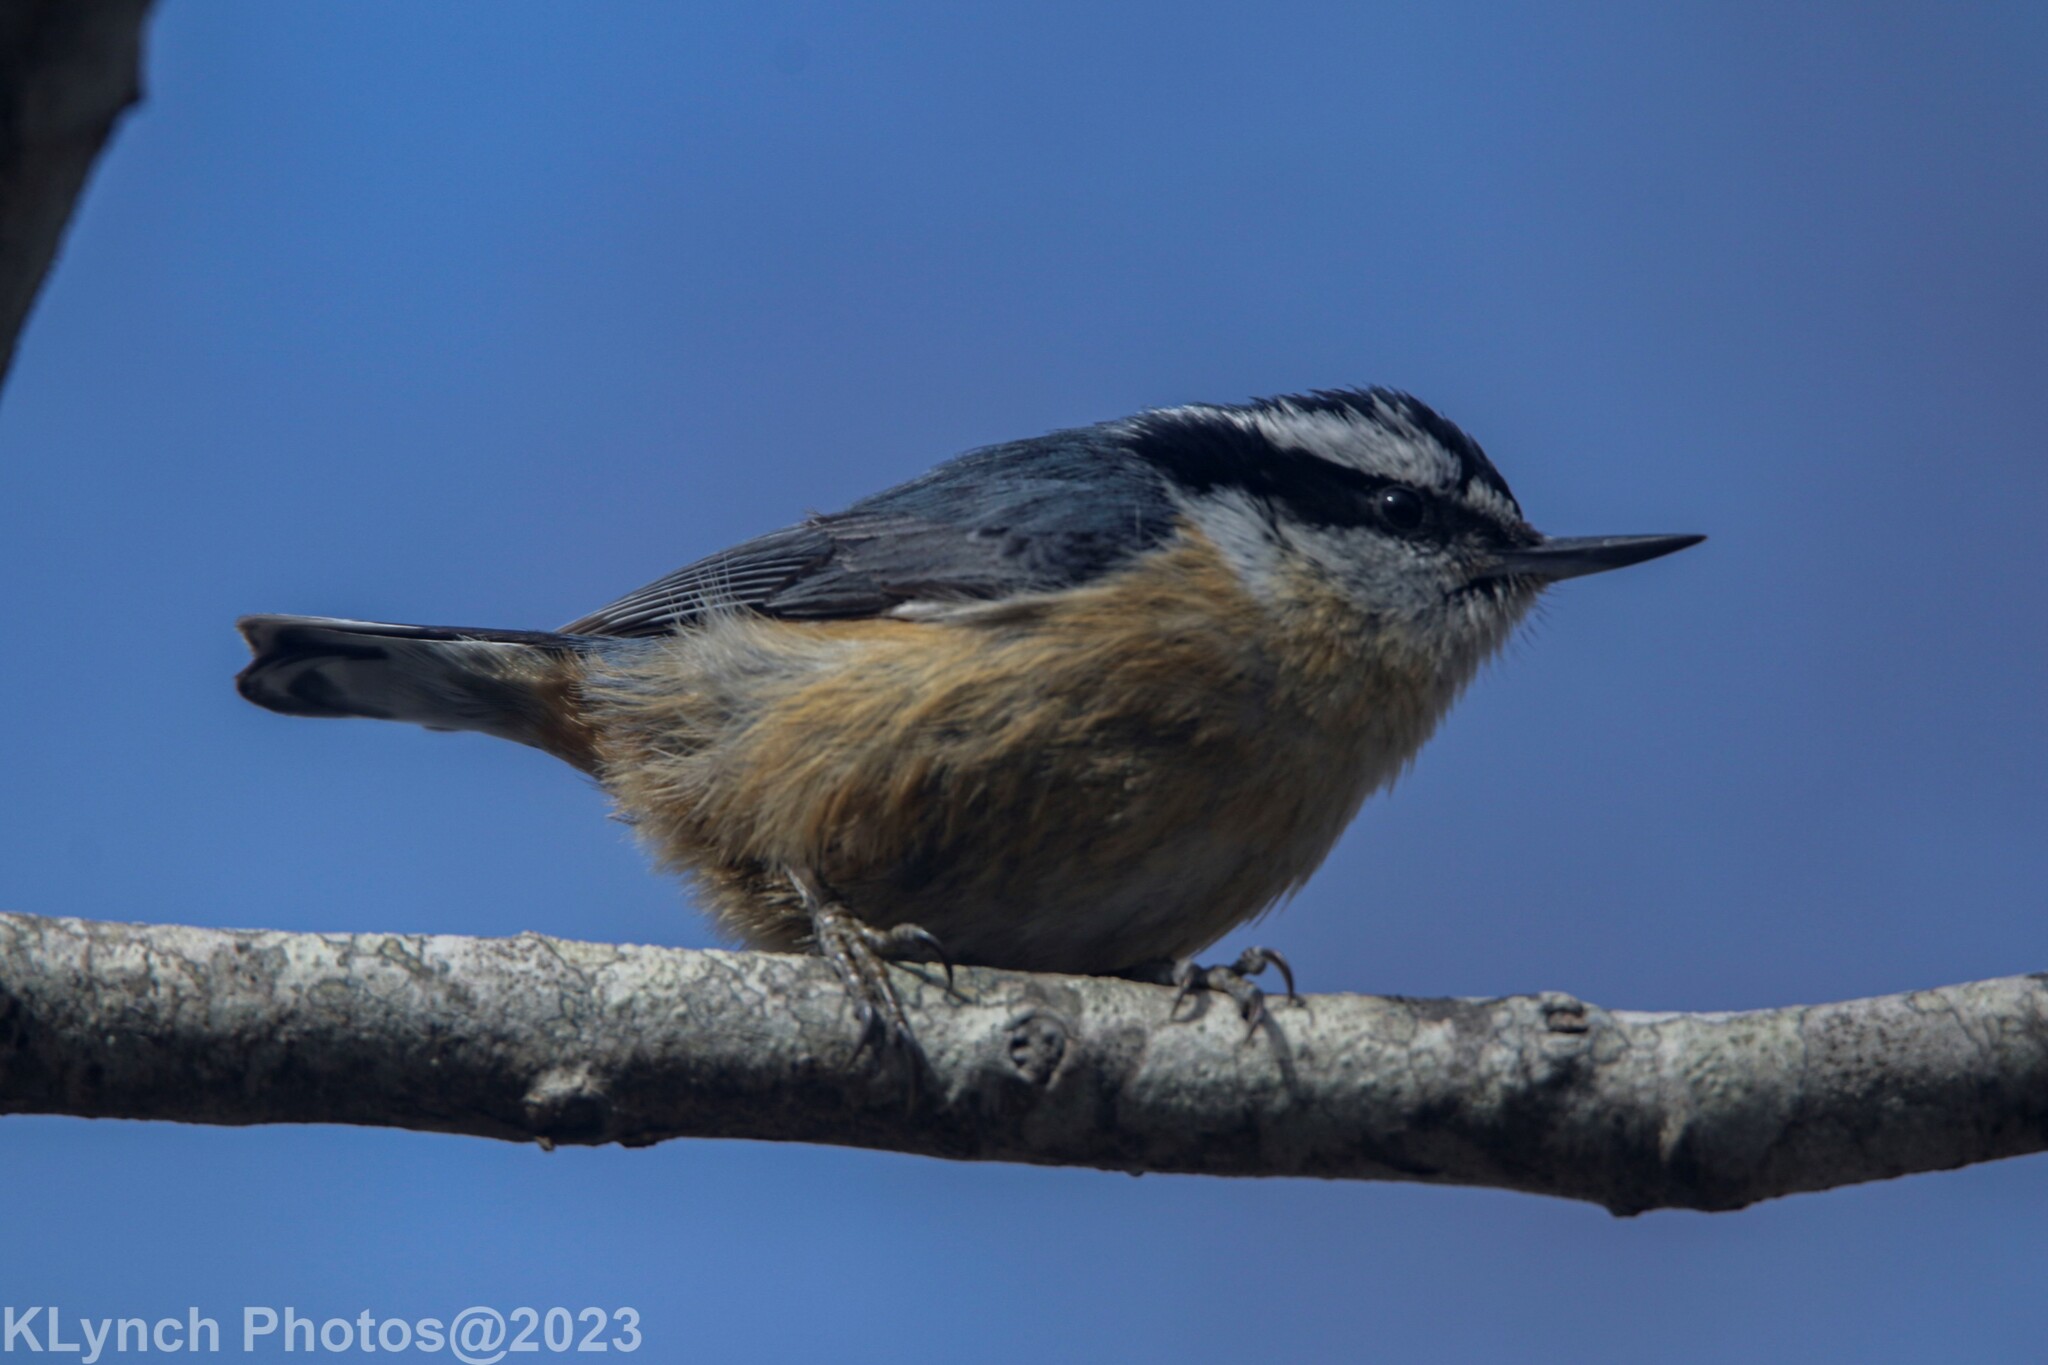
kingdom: Animalia
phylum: Chordata
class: Aves
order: Passeriformes
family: Sittidae
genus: Sitta
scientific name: Sitta canadensis
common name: Red-breasted nuthatch
